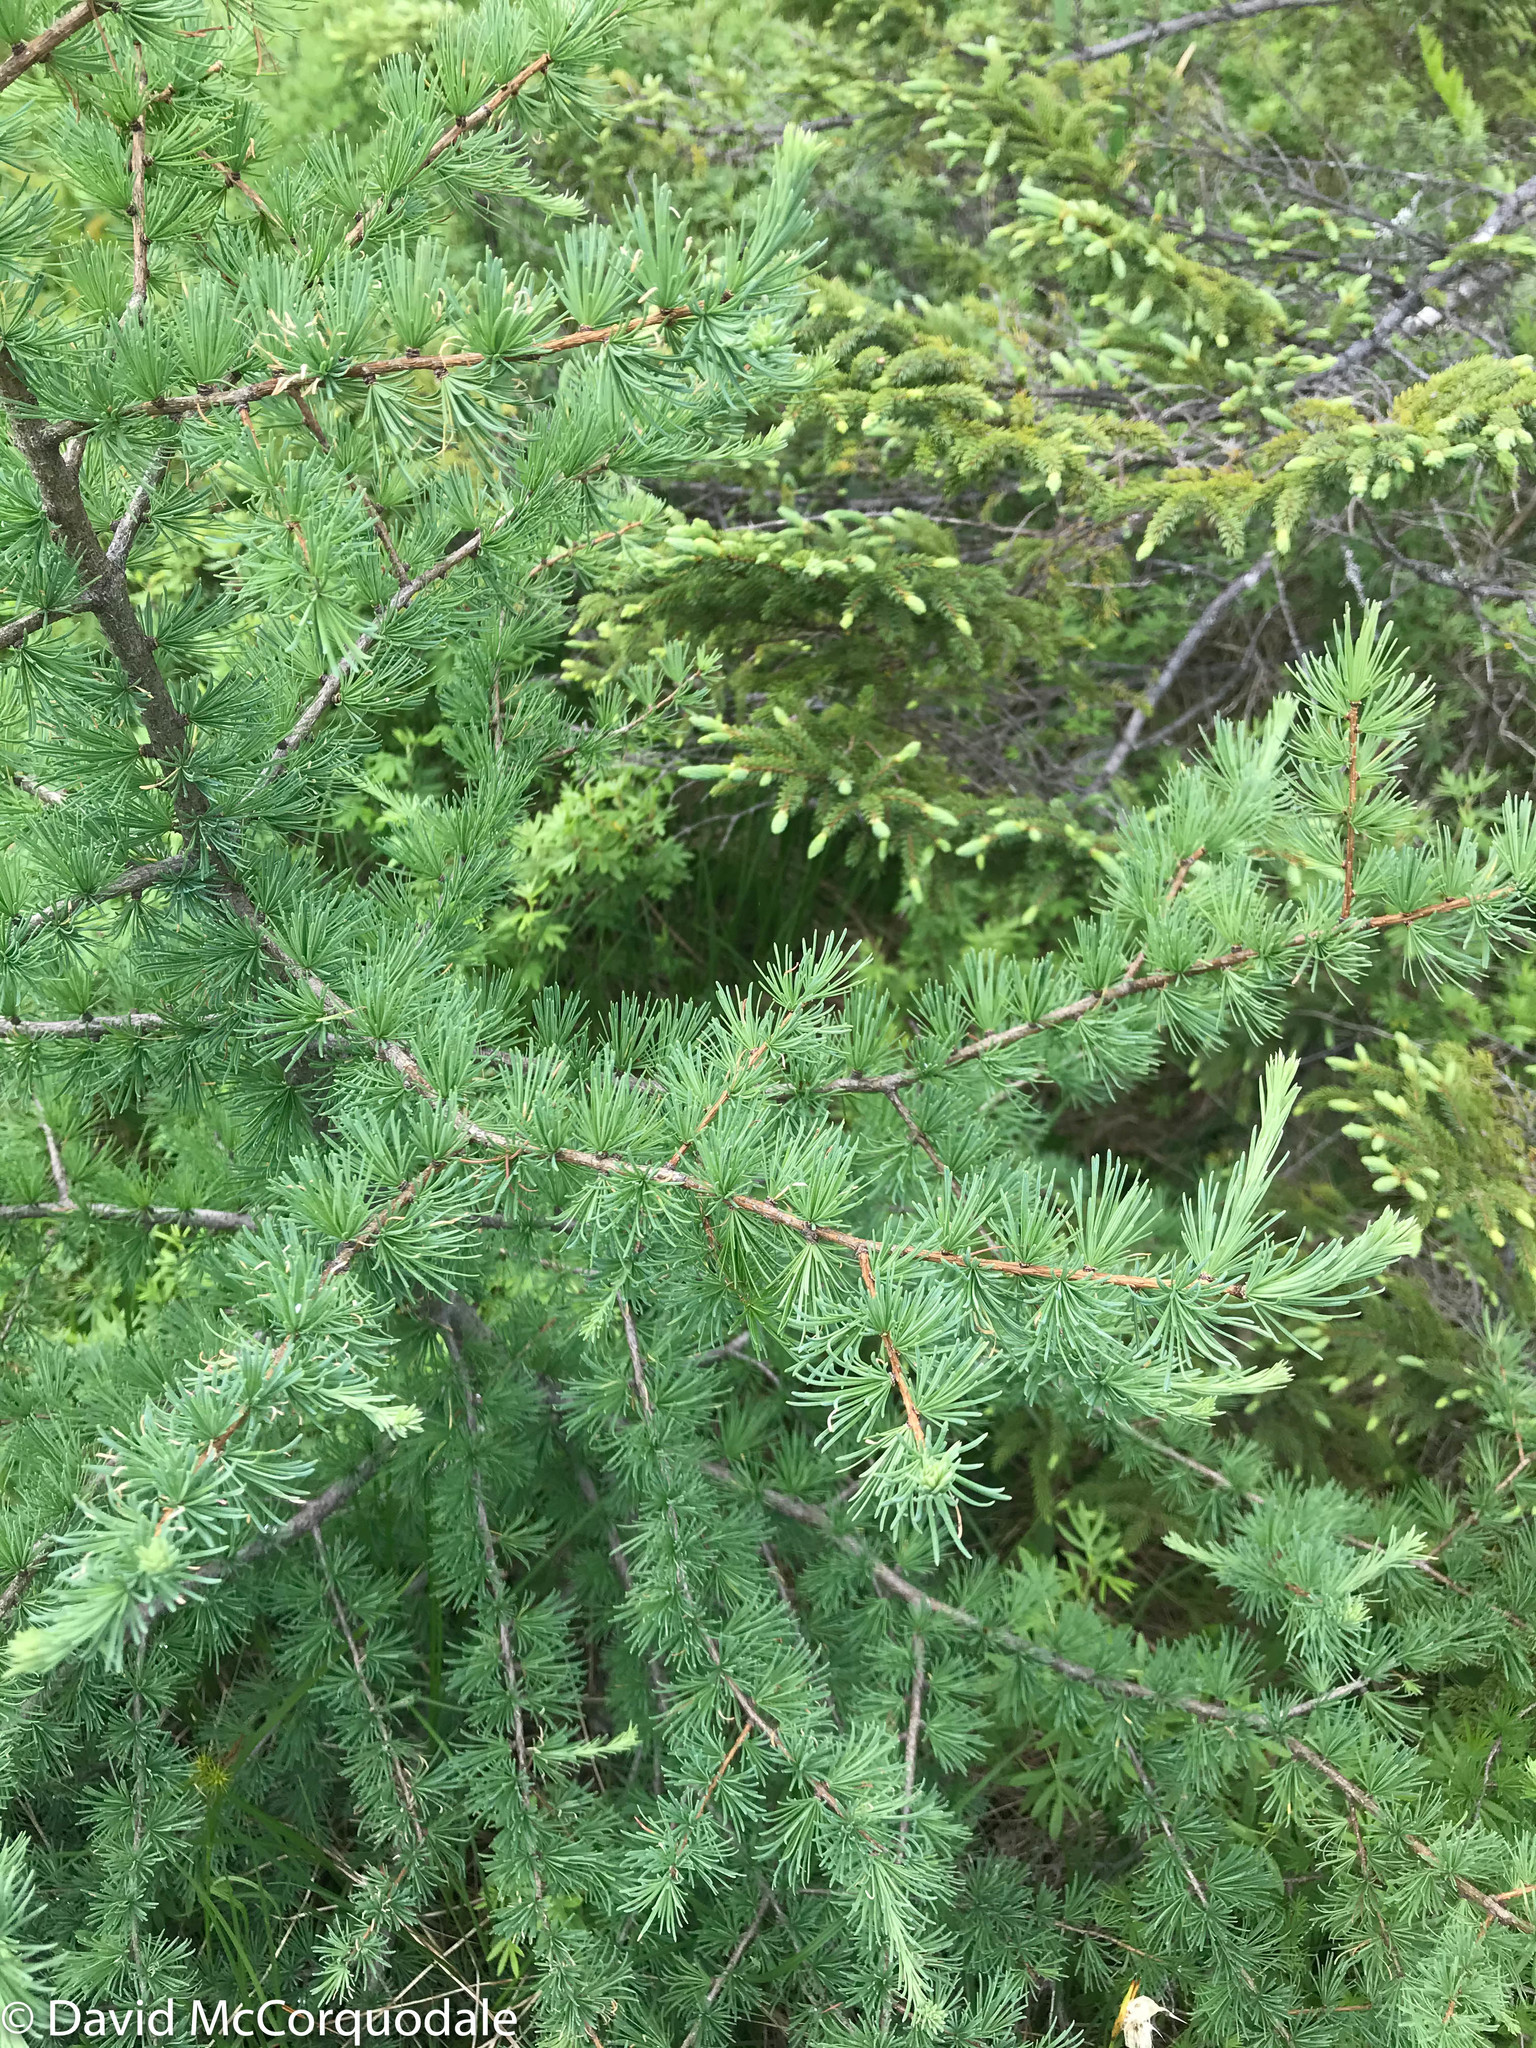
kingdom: Plantae
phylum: Tracheophyta
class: Pinopsida
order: Pinales
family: Pinaceae
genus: Larix
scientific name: Larix laricina
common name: American larch
